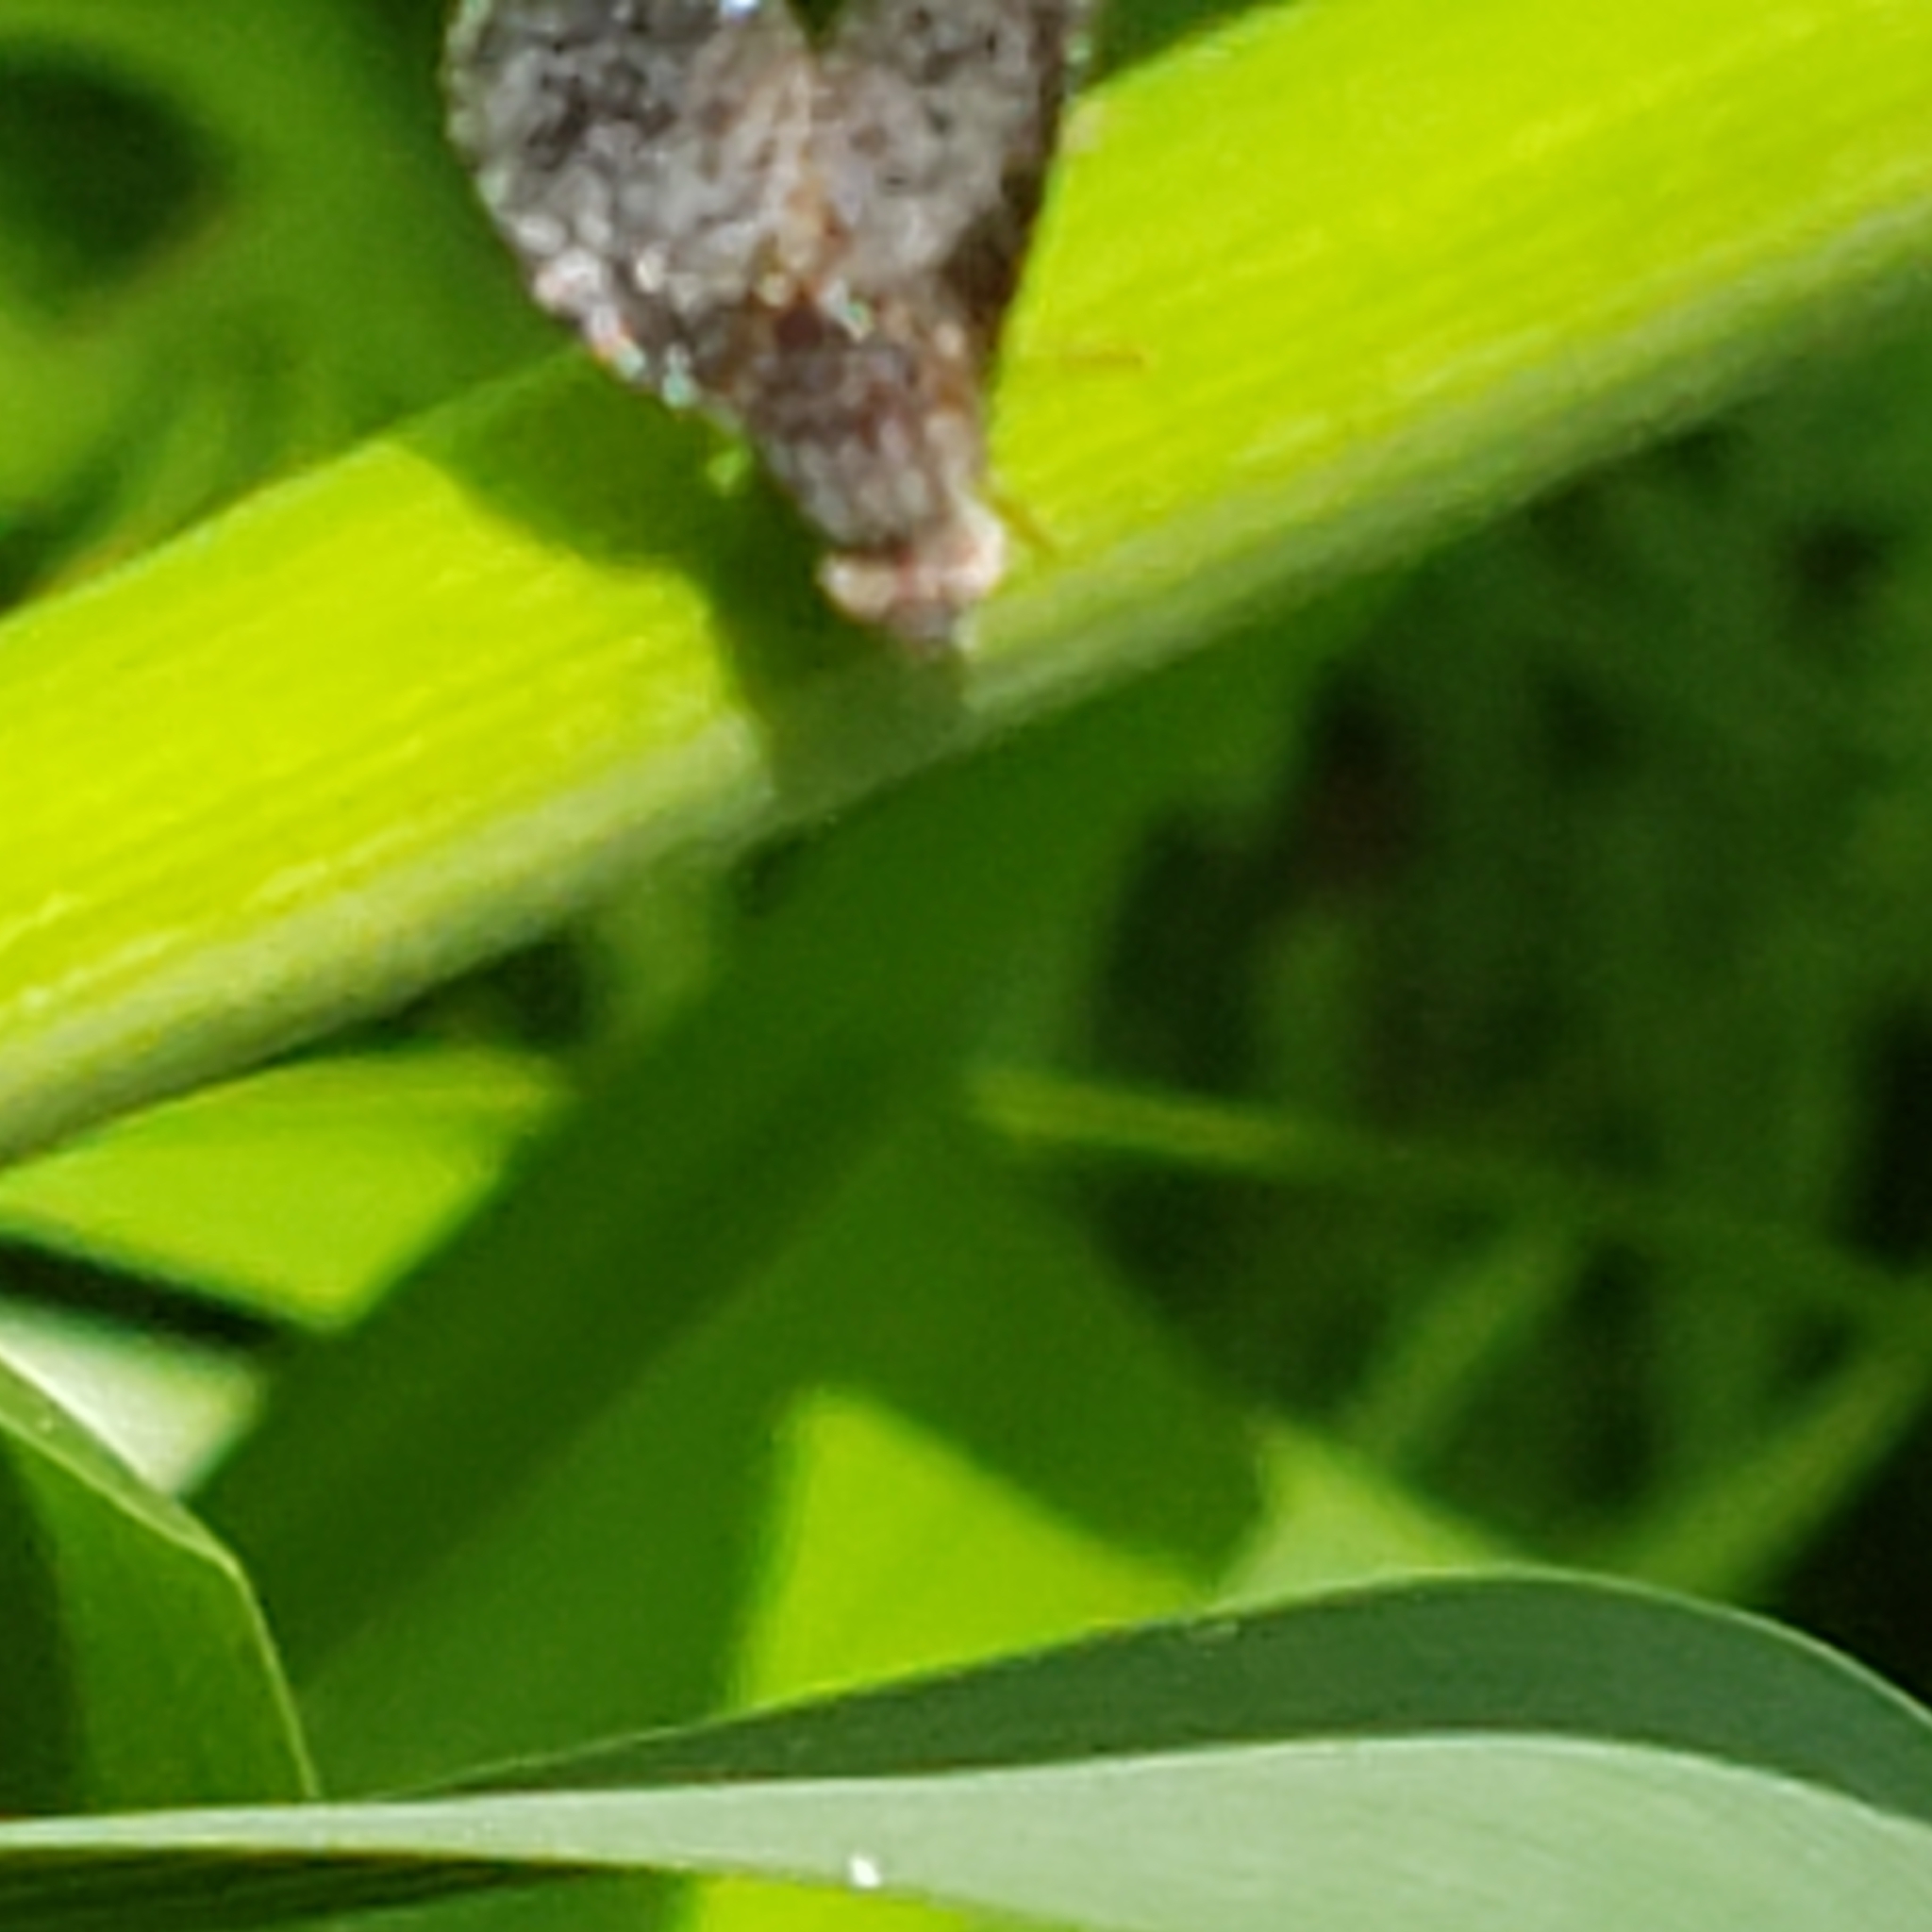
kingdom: Animalia
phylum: Arthropoda
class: Insecta
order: Diptera
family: Tephritidae
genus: Eutreta
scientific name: Eutreta rotundipennis
